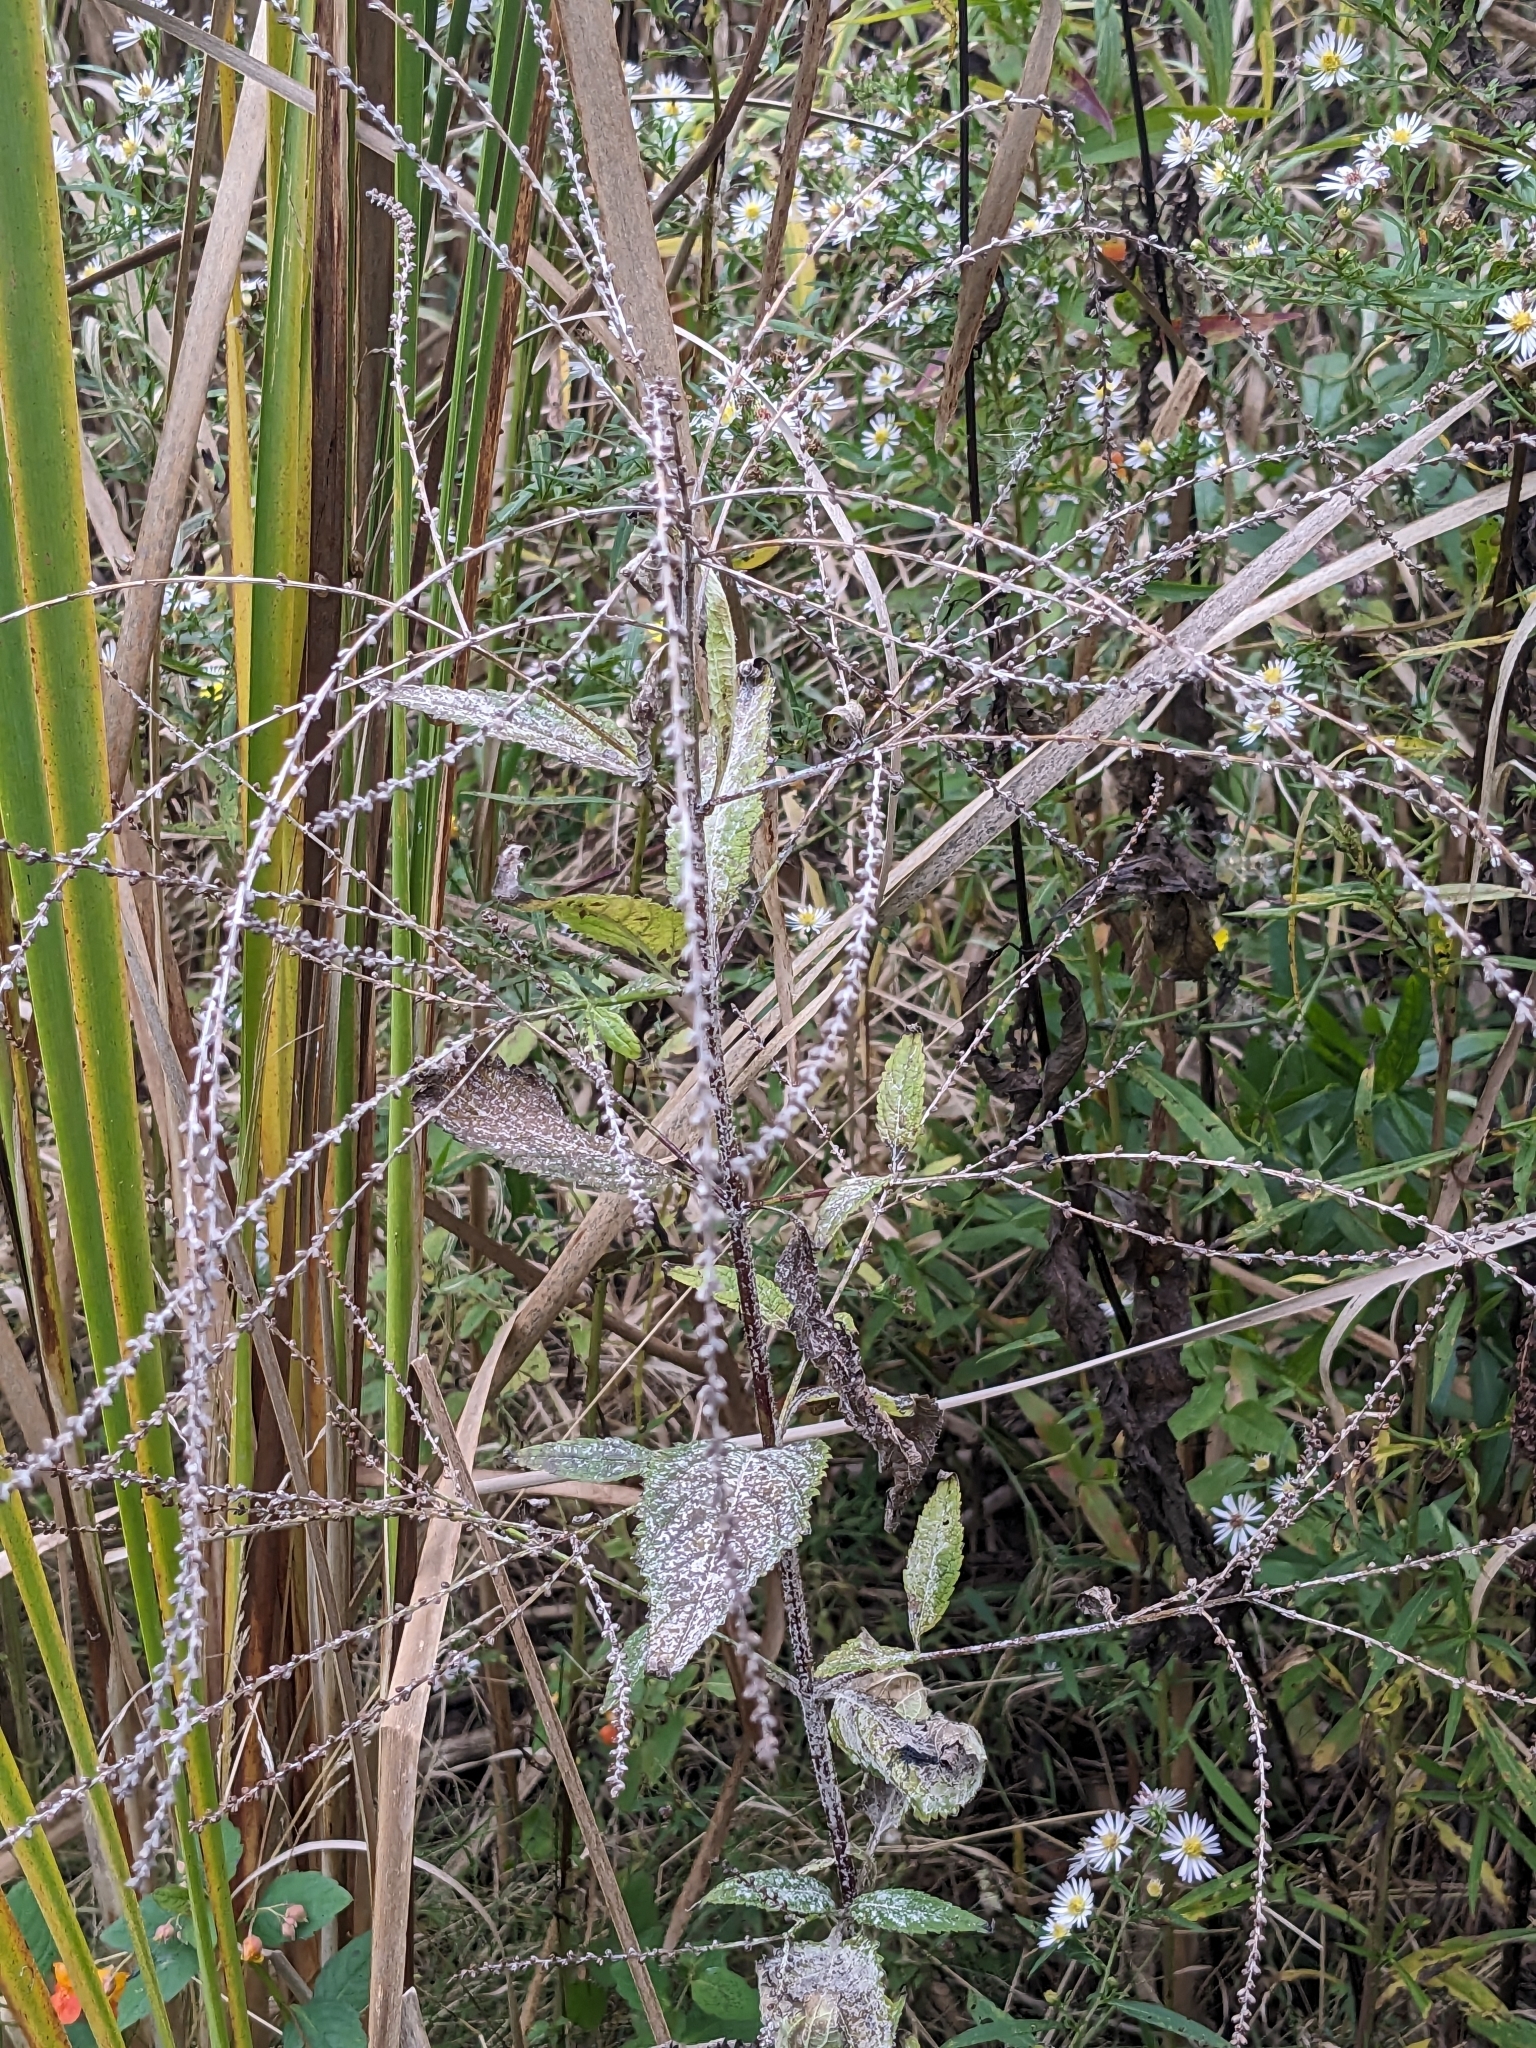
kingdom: Plantae
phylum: Tracheophyta
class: Magnoliopsida
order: Lamiales
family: Verbenaceae
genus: Verbena
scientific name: Verbena urticifolia
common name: Nettle-leaved vervain
